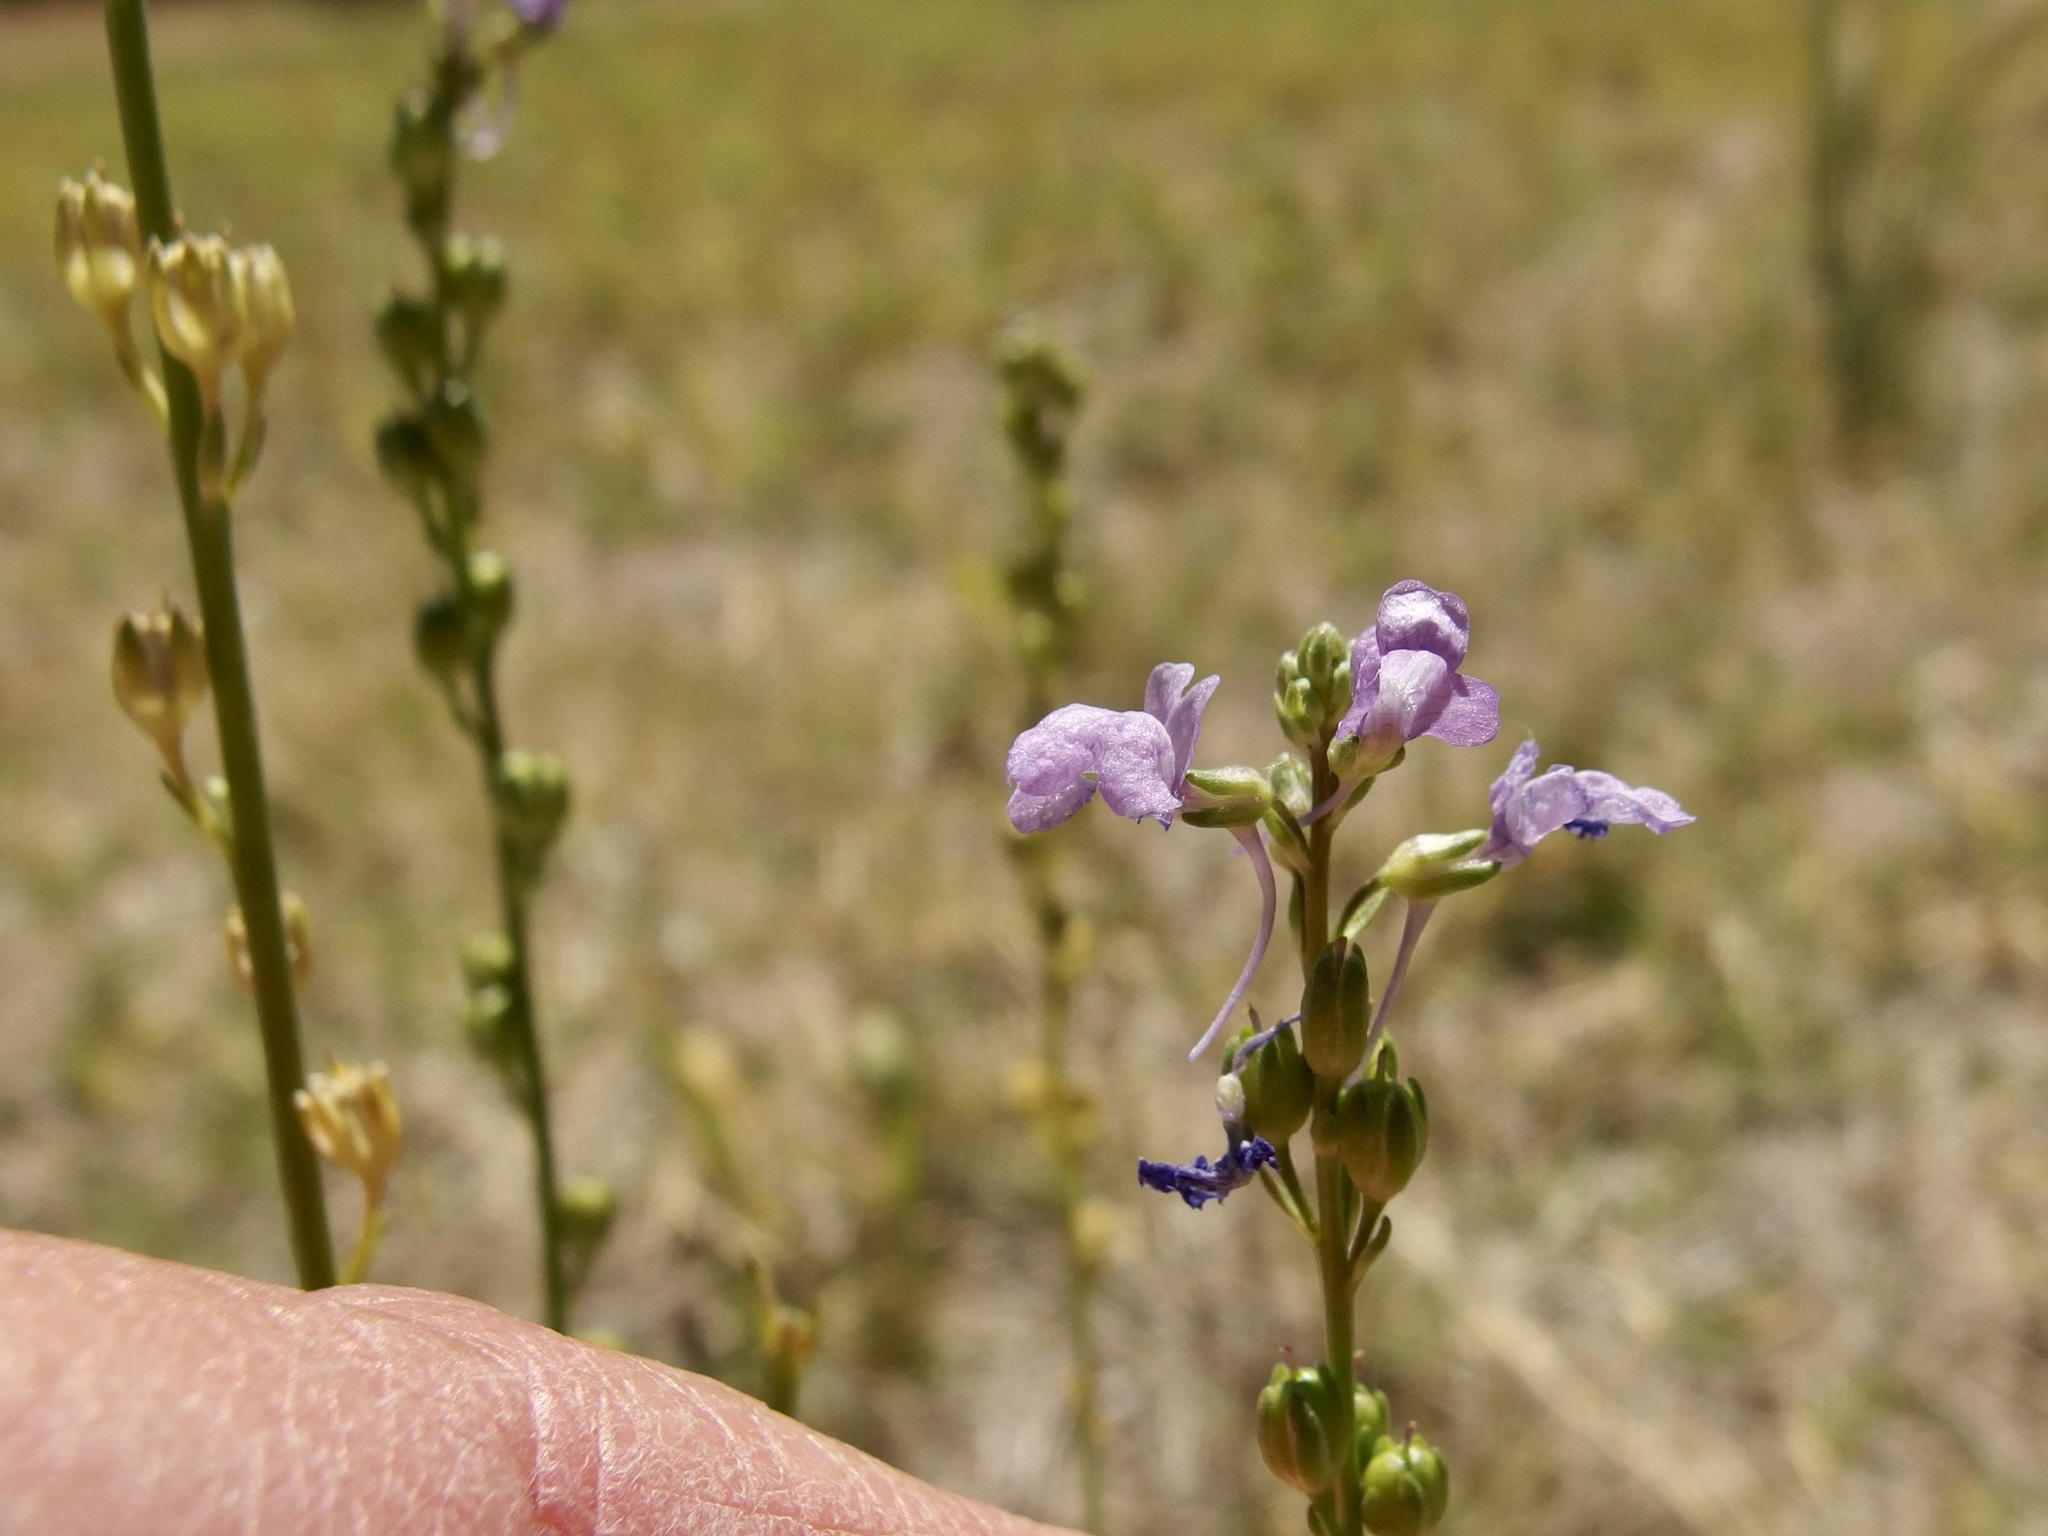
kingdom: Plantae
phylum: Tracheophyta
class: Magnoliopsida
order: Lamiales
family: Plantaginaceae
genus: Nuttallanthus
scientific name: Nuttallanthus texanus
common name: Texas toadflax
